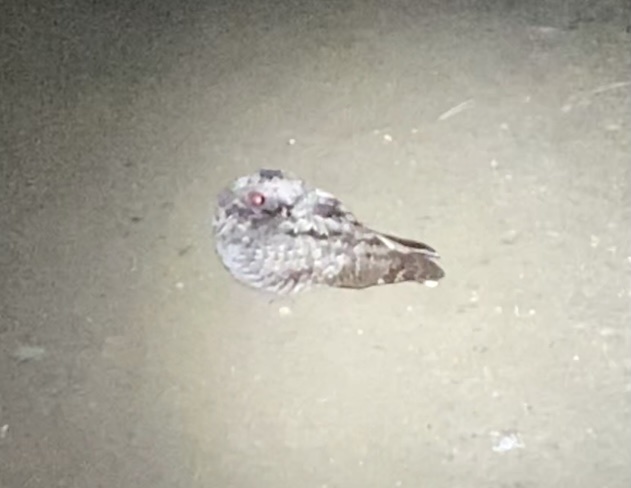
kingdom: Animalia
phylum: Chordata
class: Aves
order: Caprimulgiformes
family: Caprimulgidae
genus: Phalaenoptilus
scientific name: Phalaenoptilus nuttallii
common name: Common poorwill
